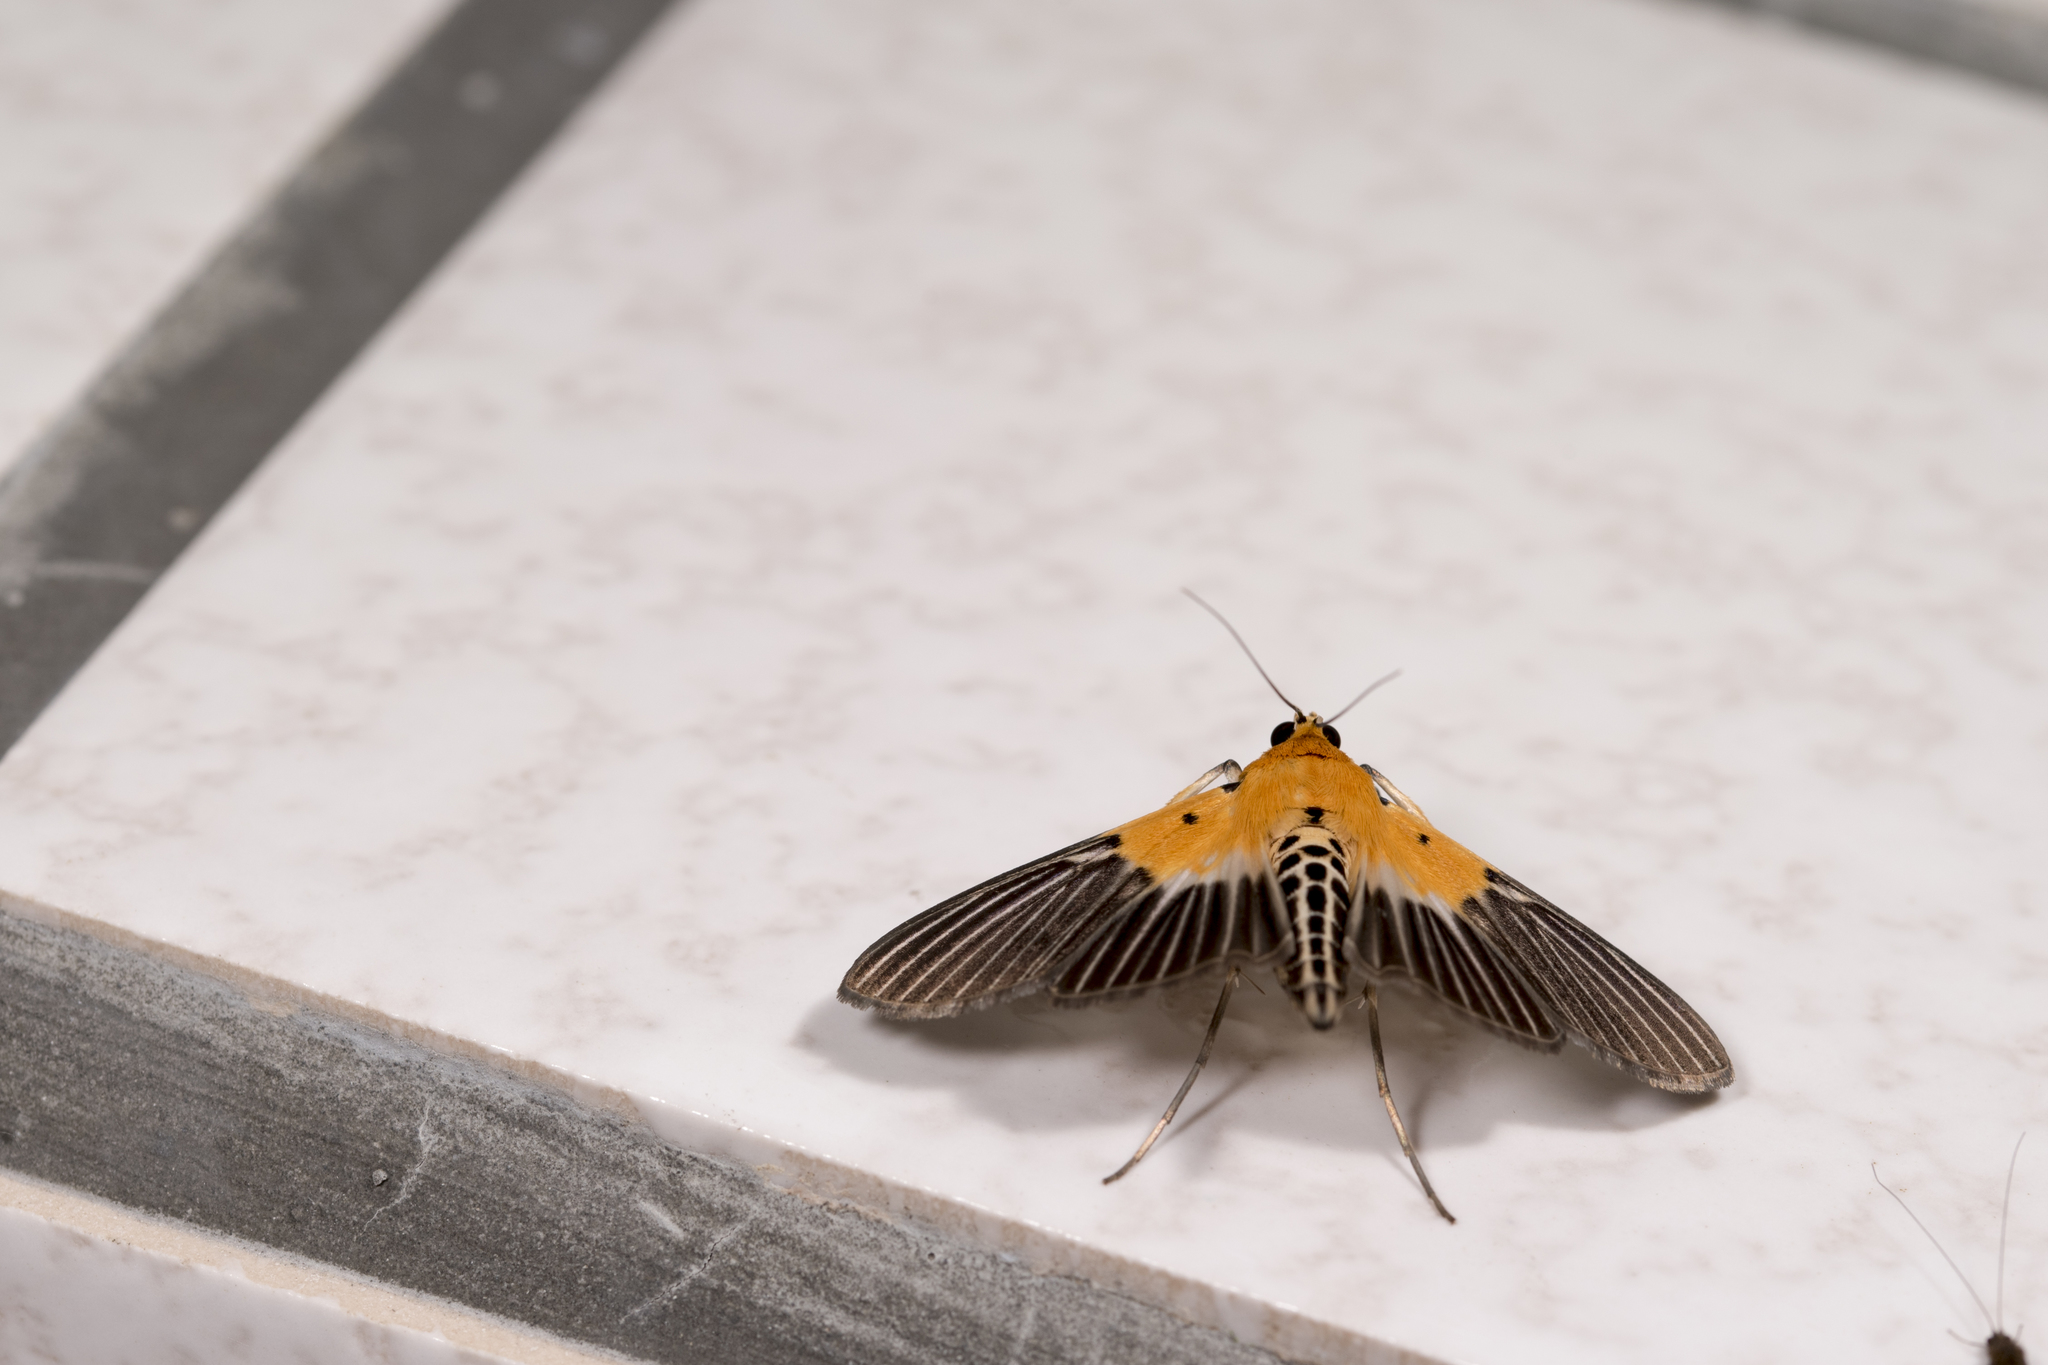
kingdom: Animalia
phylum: Arthropoda
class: Insecta
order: Lepidoptera
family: Crambidae
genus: Nevrina
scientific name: Nevrina procopia
